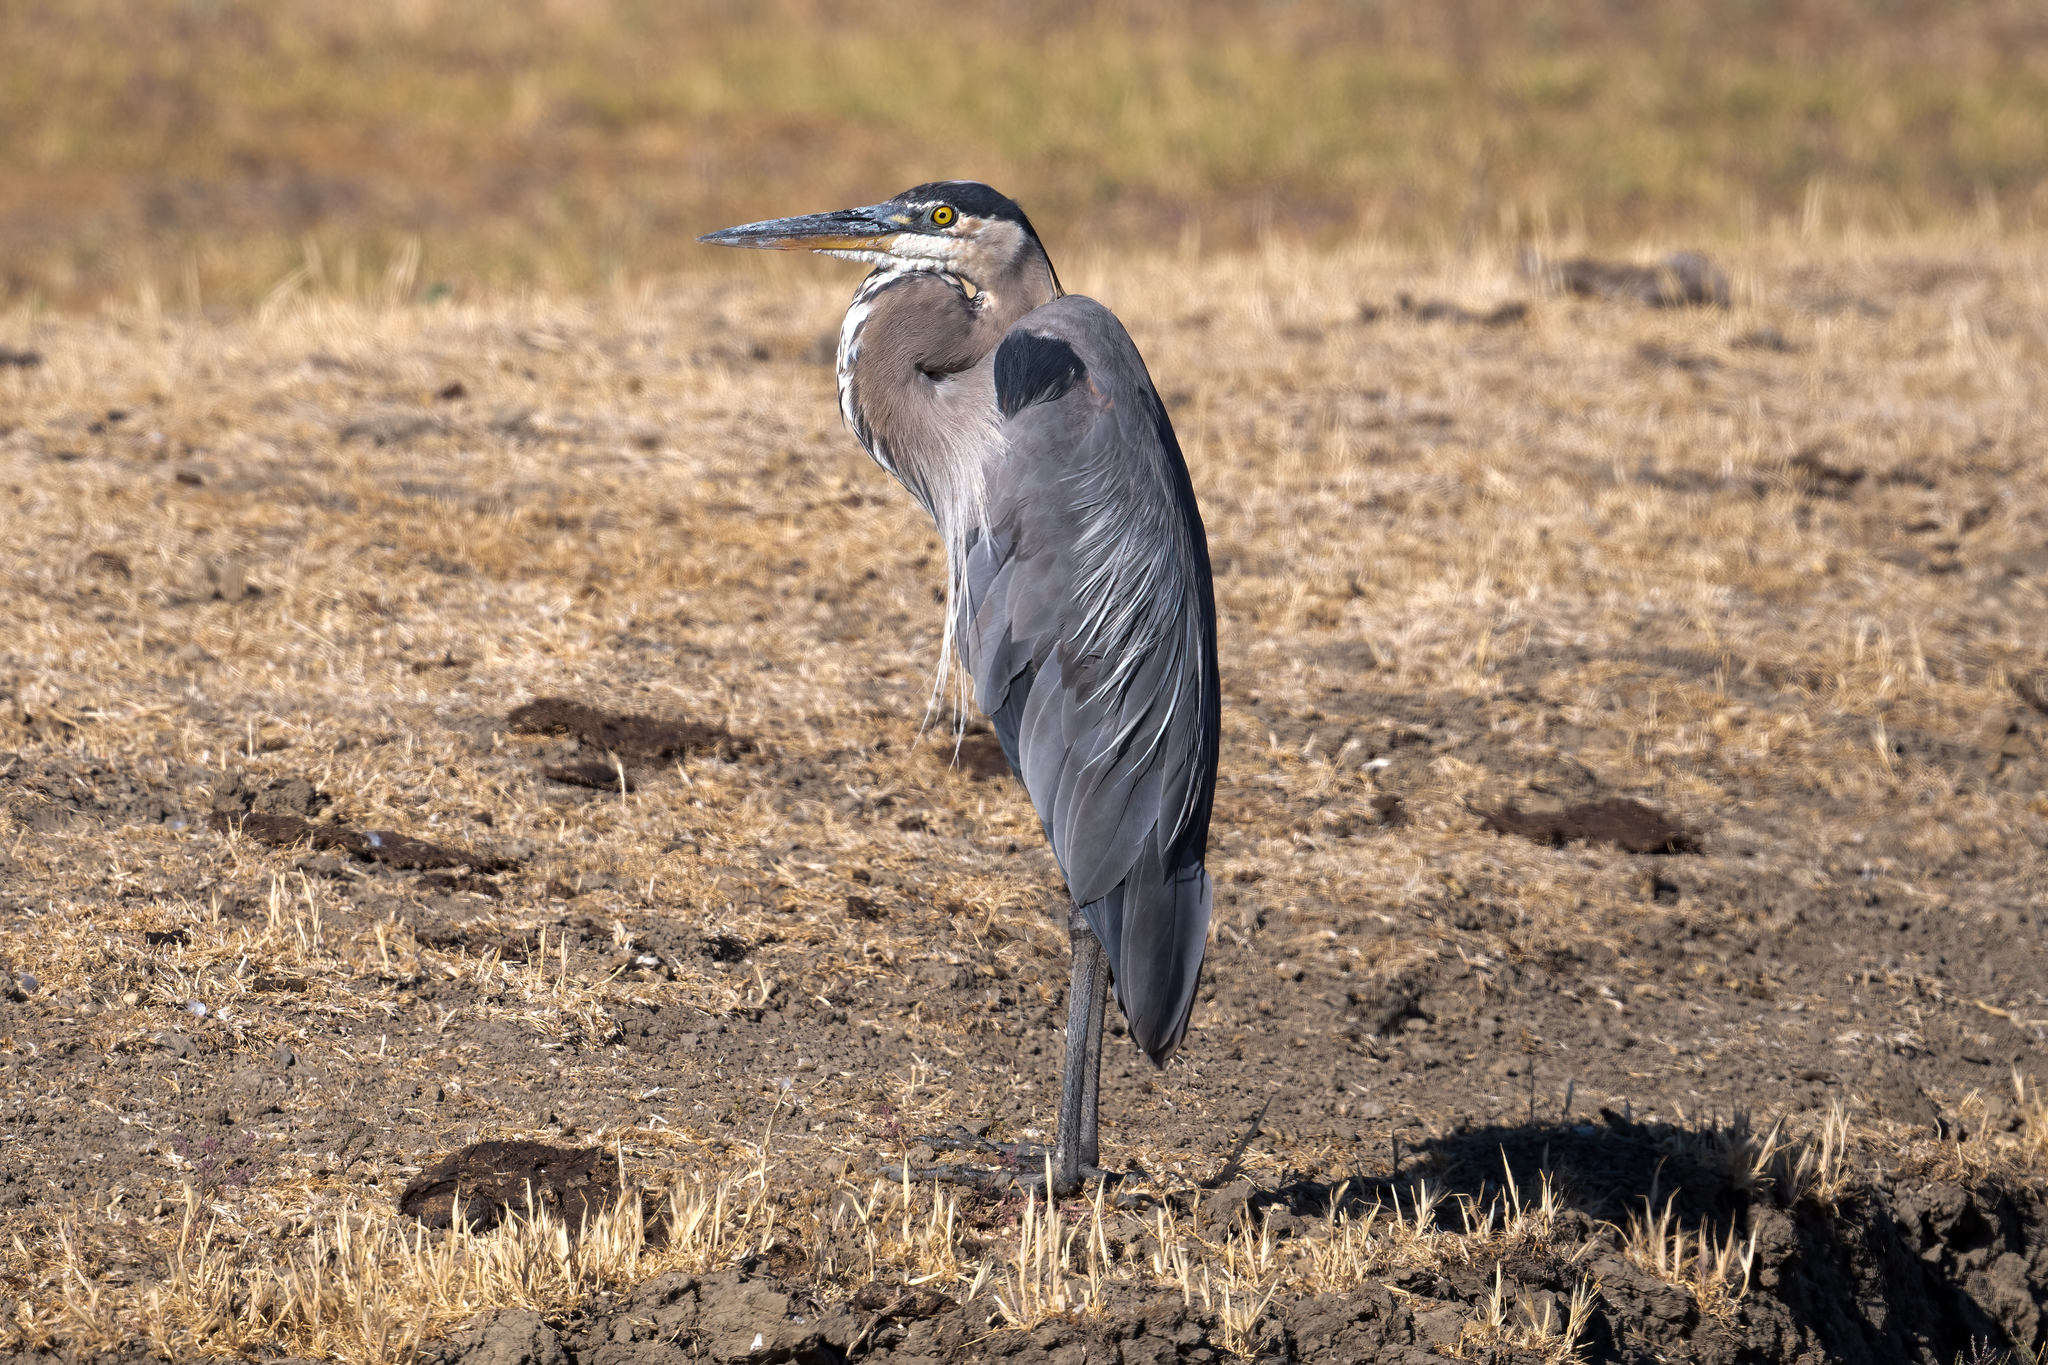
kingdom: Animalia
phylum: Chordata
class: Aves
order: Pelecaniformes
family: Ardeidae
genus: Ardea
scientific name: Ardea herodias
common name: Great blue heron
